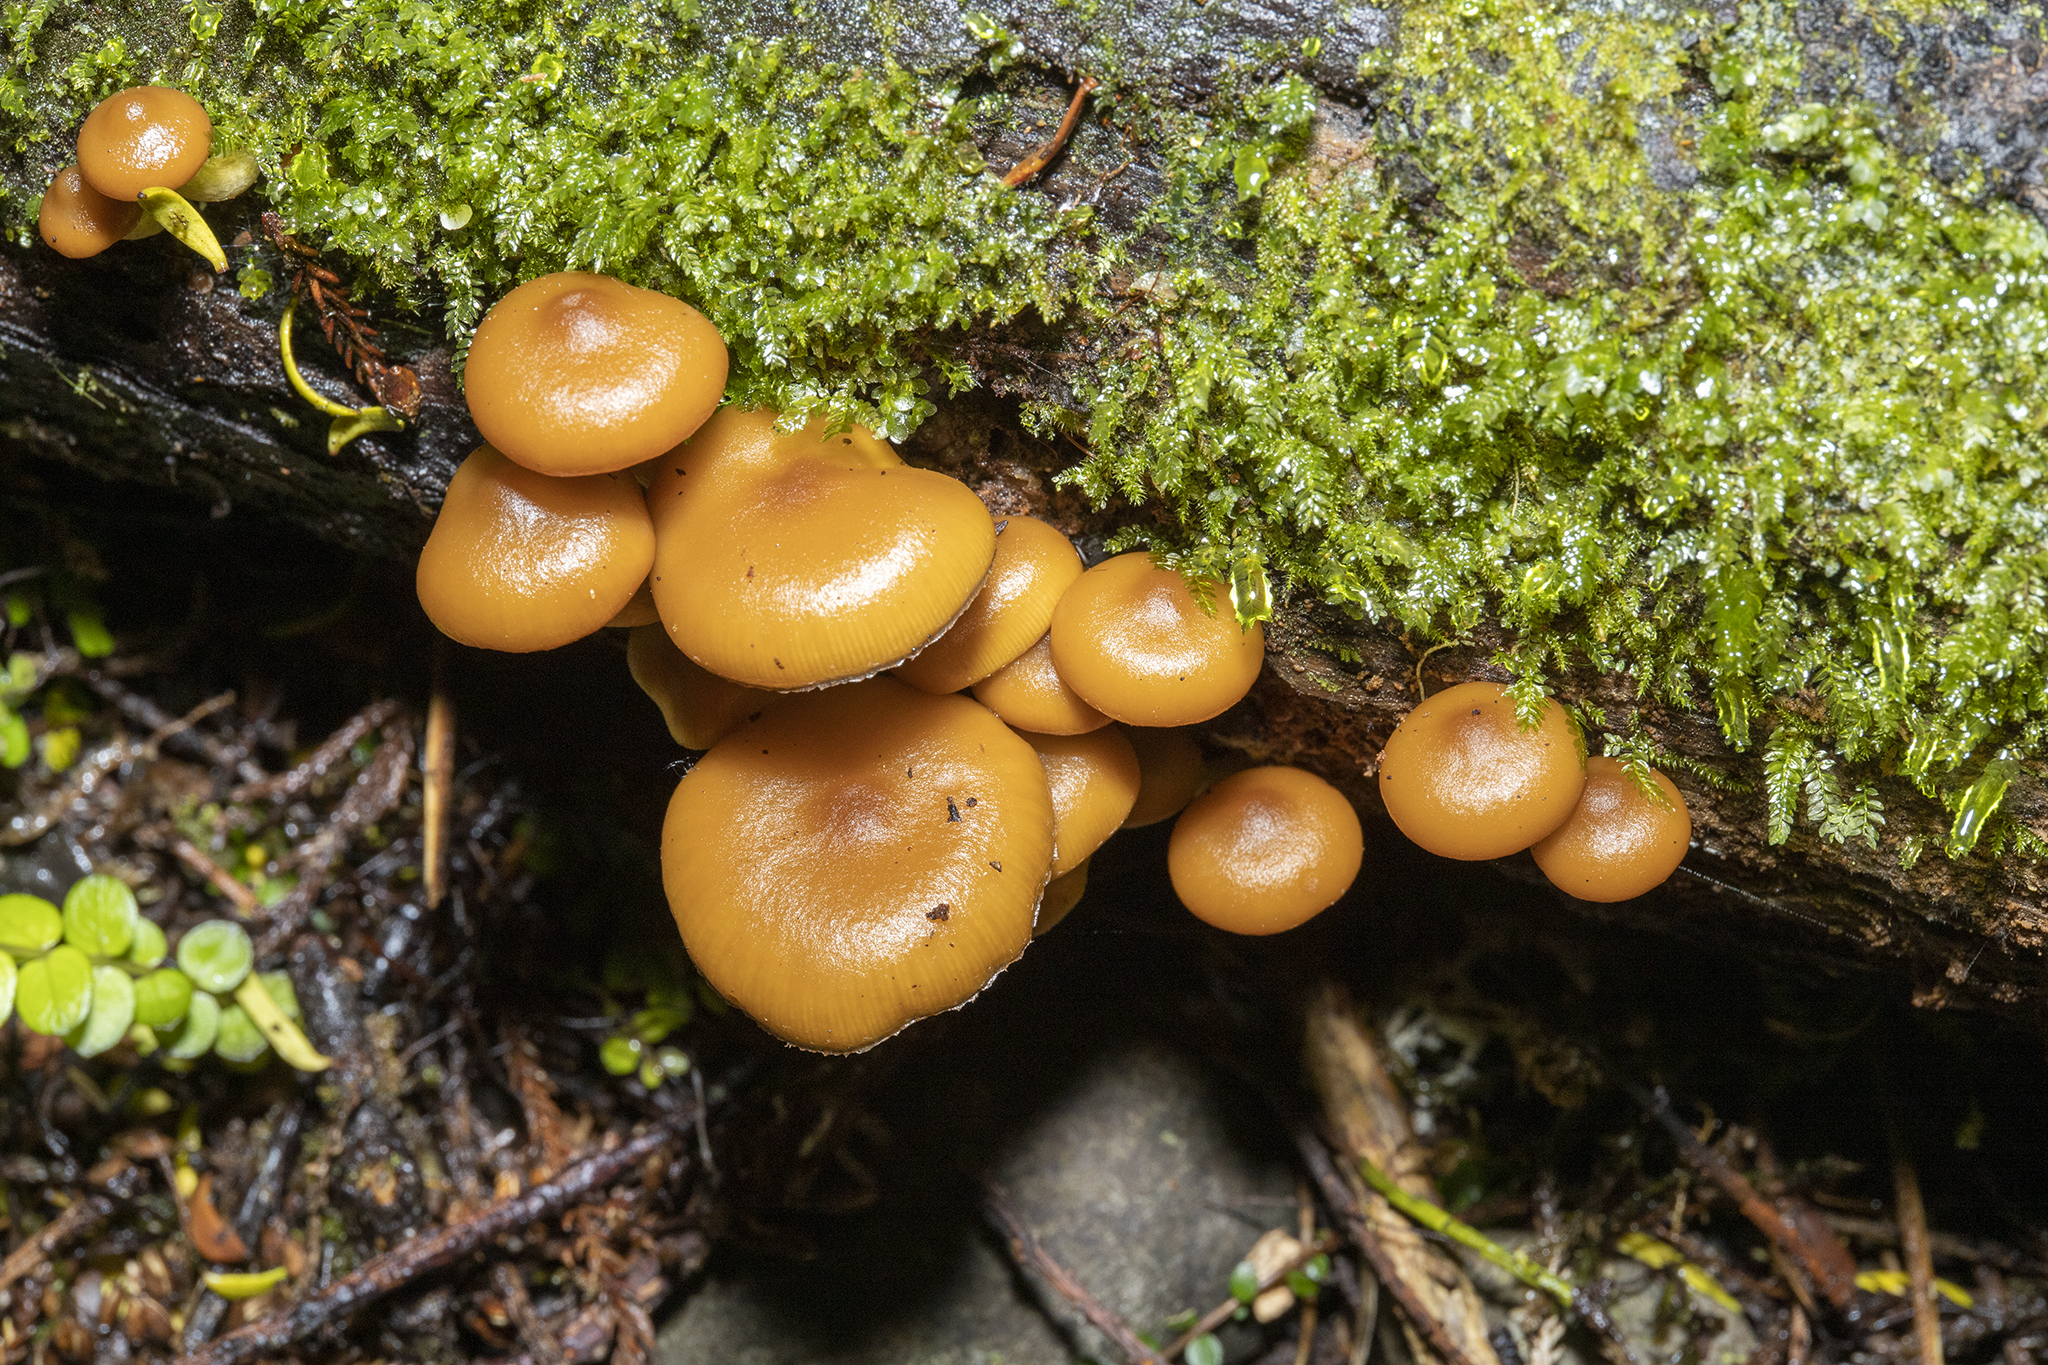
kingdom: Fungi
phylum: Basidiomycota
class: Agaricomycetes
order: Agaricales
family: Hymenogastraceae
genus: Galerina
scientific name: Galerina patagonica
